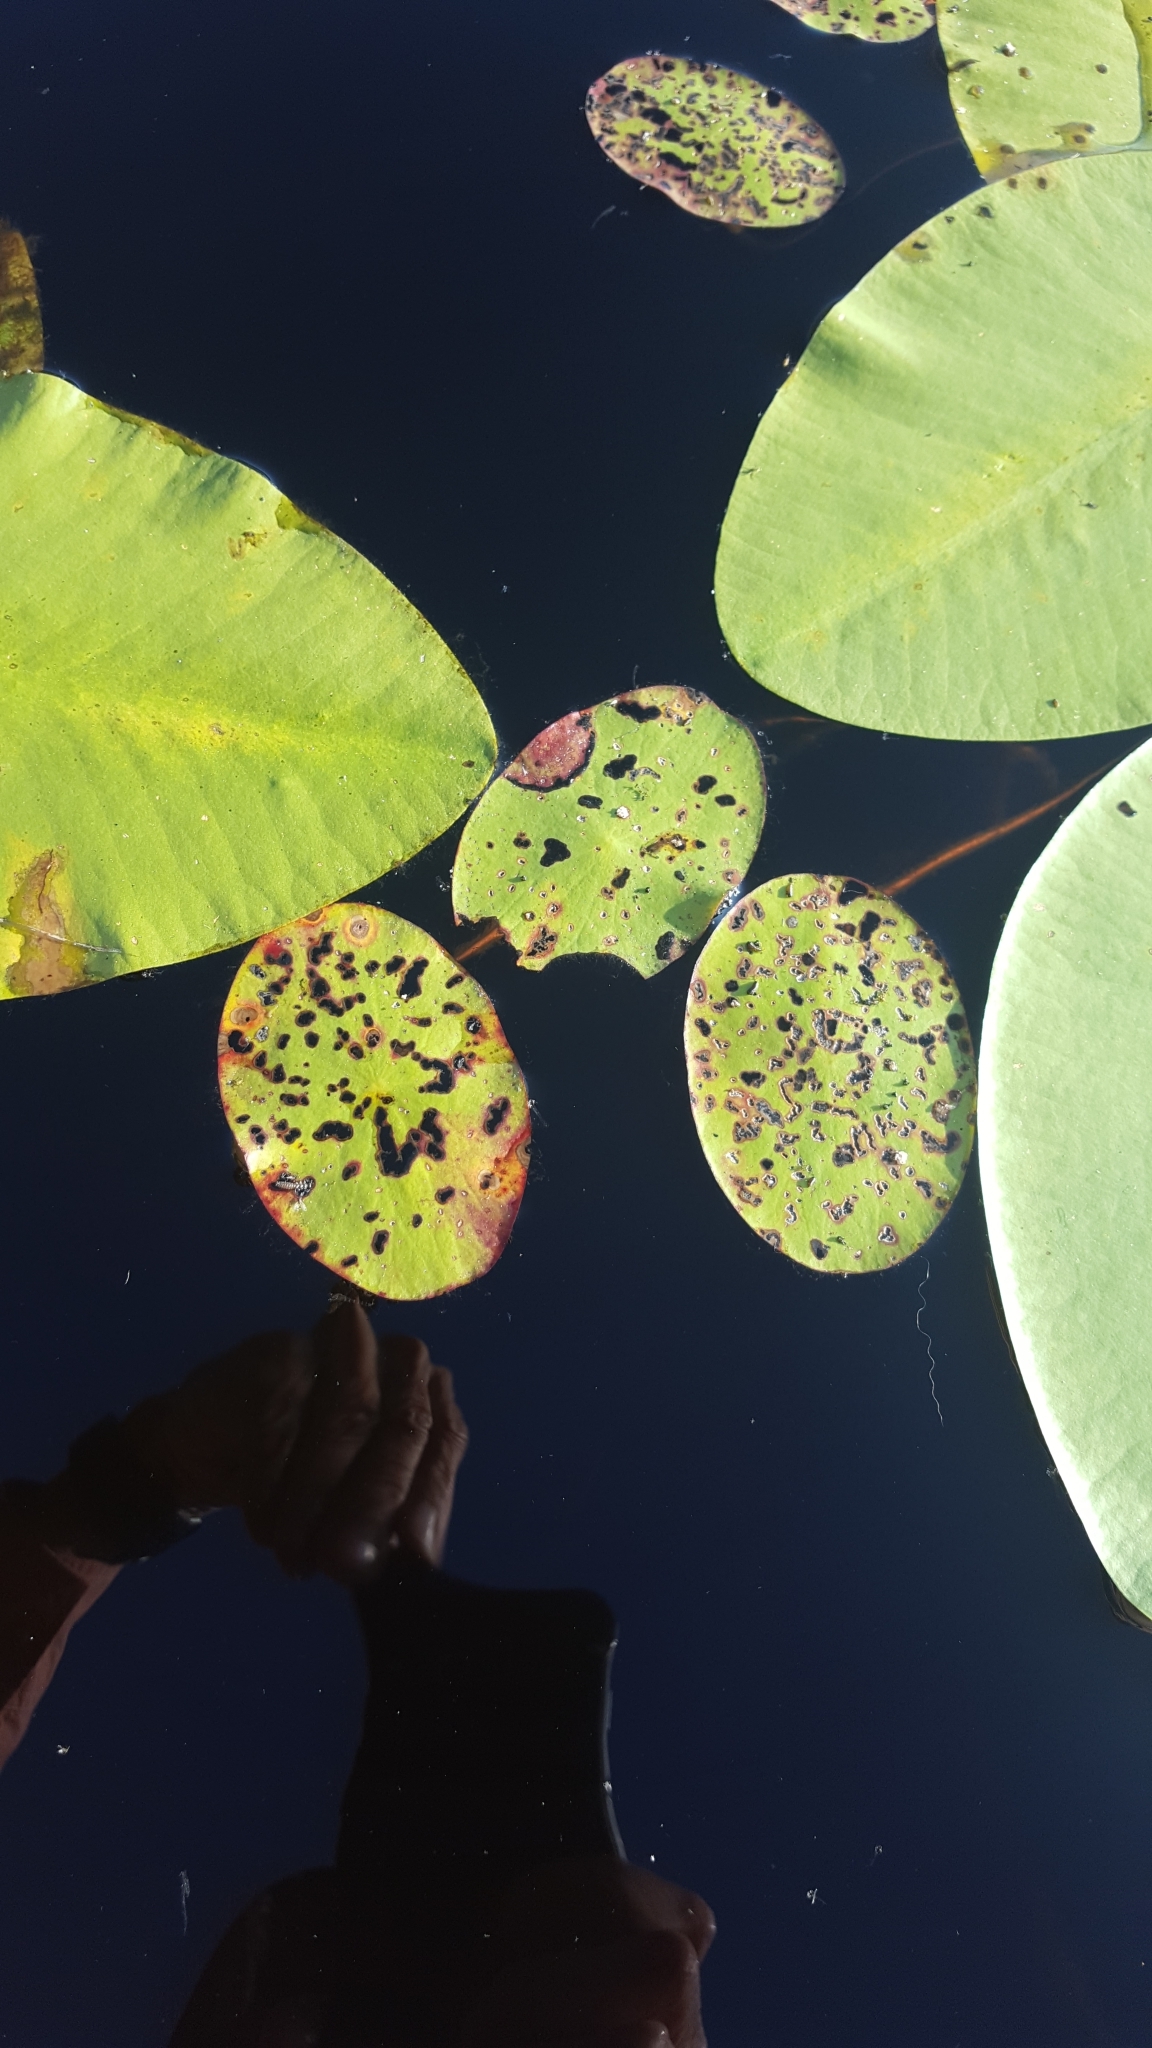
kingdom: Plantae
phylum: Tracheophyta
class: Magnoliopsida
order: Nymphaeales
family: Cabombaceae
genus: Brasenia
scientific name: Brasenia schreberi
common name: Water-shield
